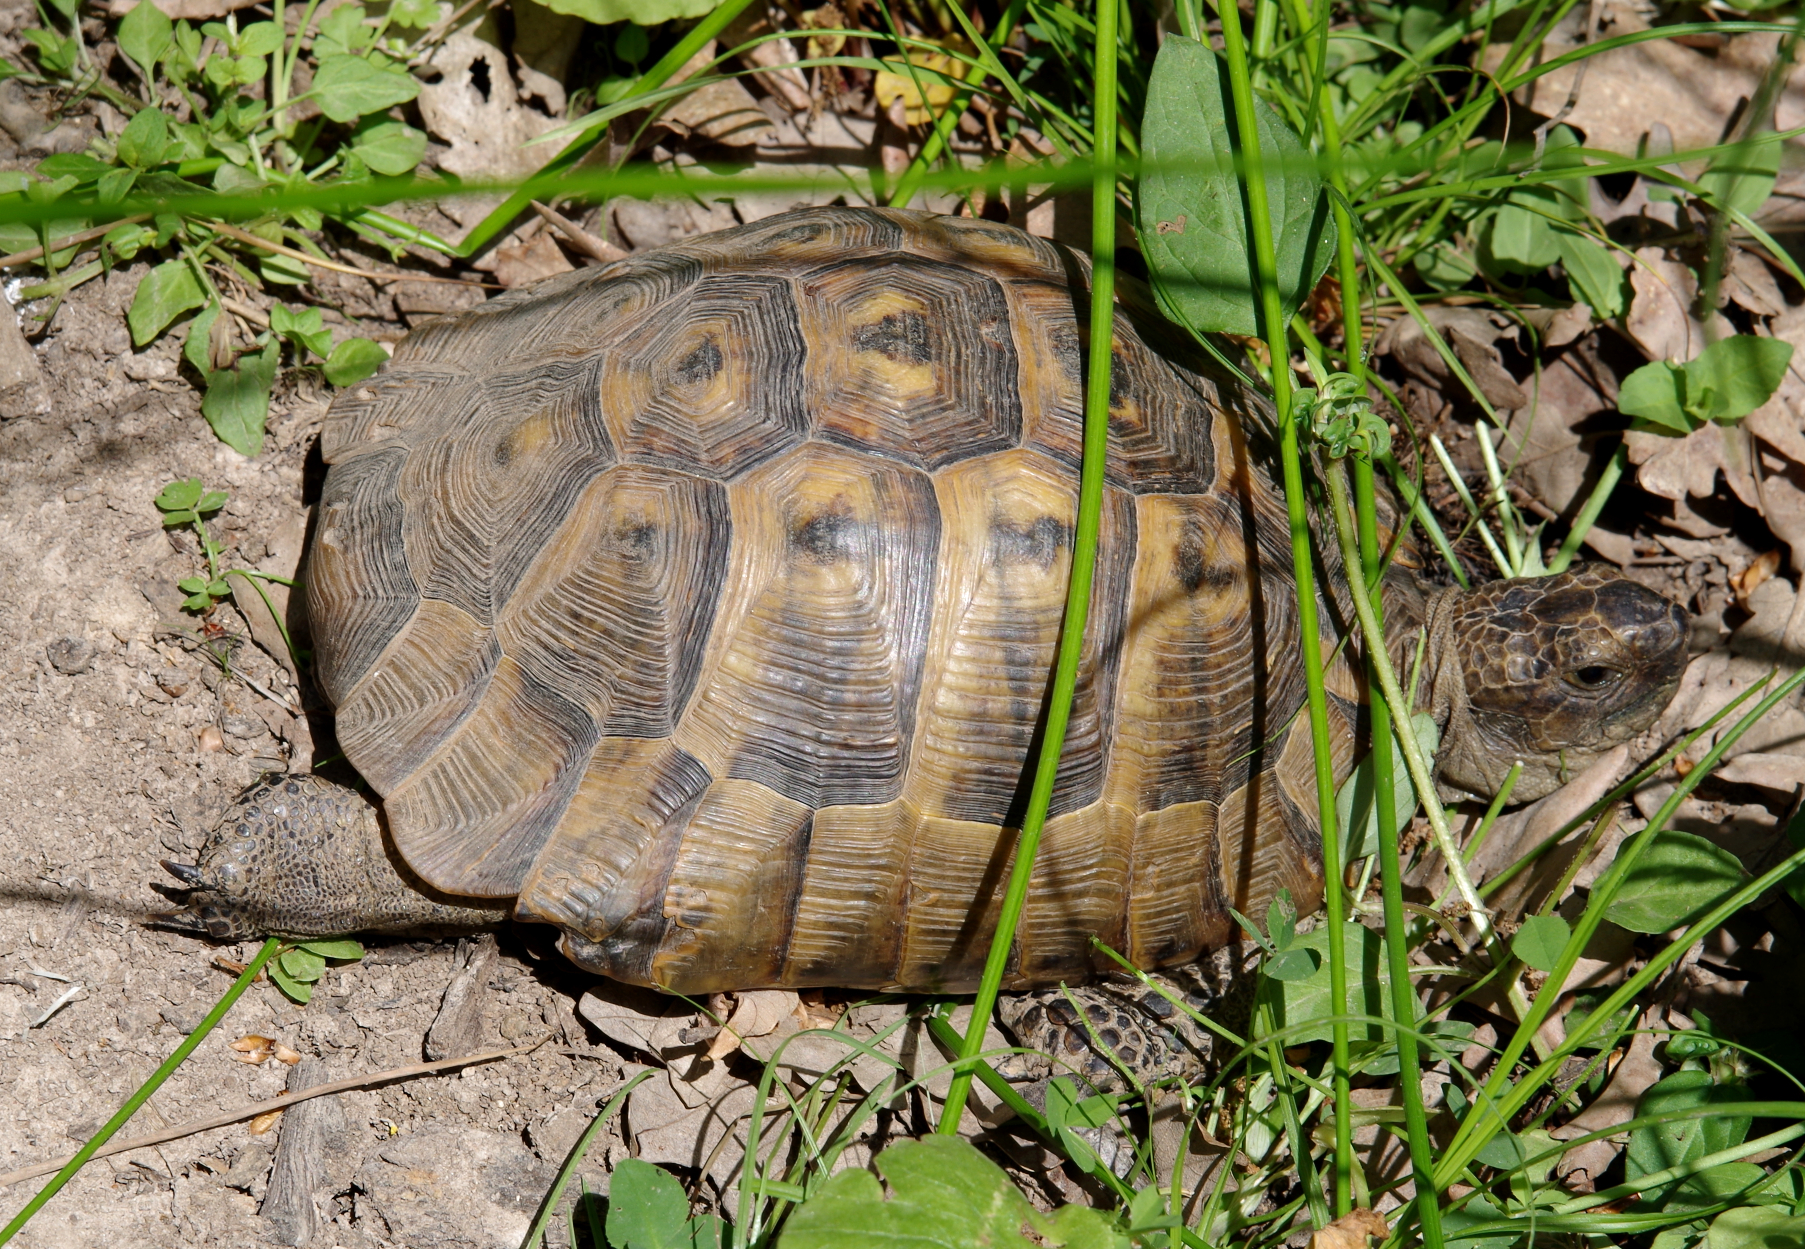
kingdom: Animalia
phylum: Chordata
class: Testudines
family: Testudinidae
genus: Testudo
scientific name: Testudo graeca
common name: Common tortoise
